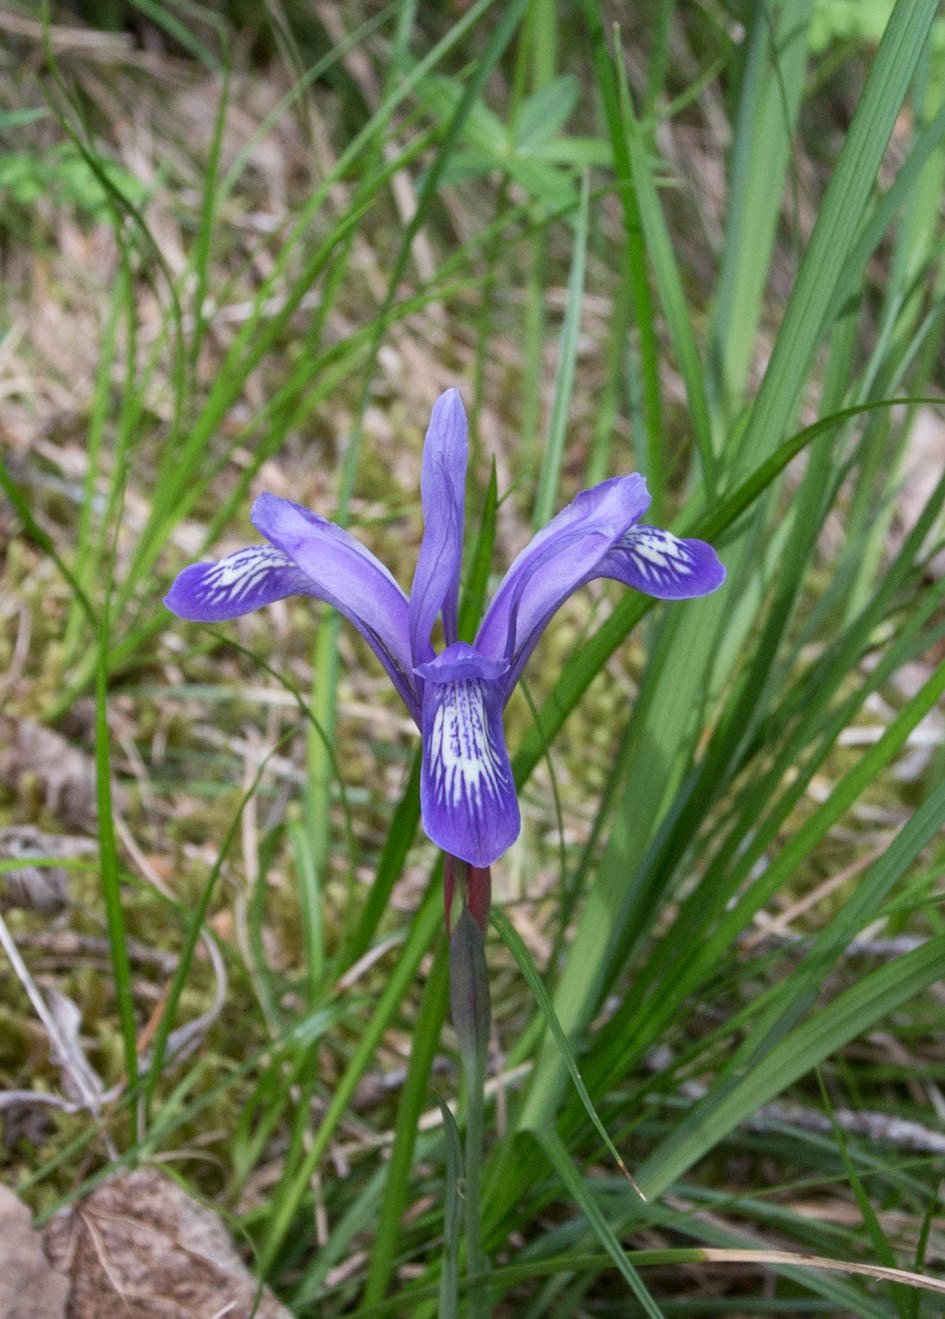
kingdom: Plantae
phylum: Tracheophyta
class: Liliopsida
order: Asparagales
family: Iridaceae
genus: Iris
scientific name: Iris ruthenica
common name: Purple-bract iris
